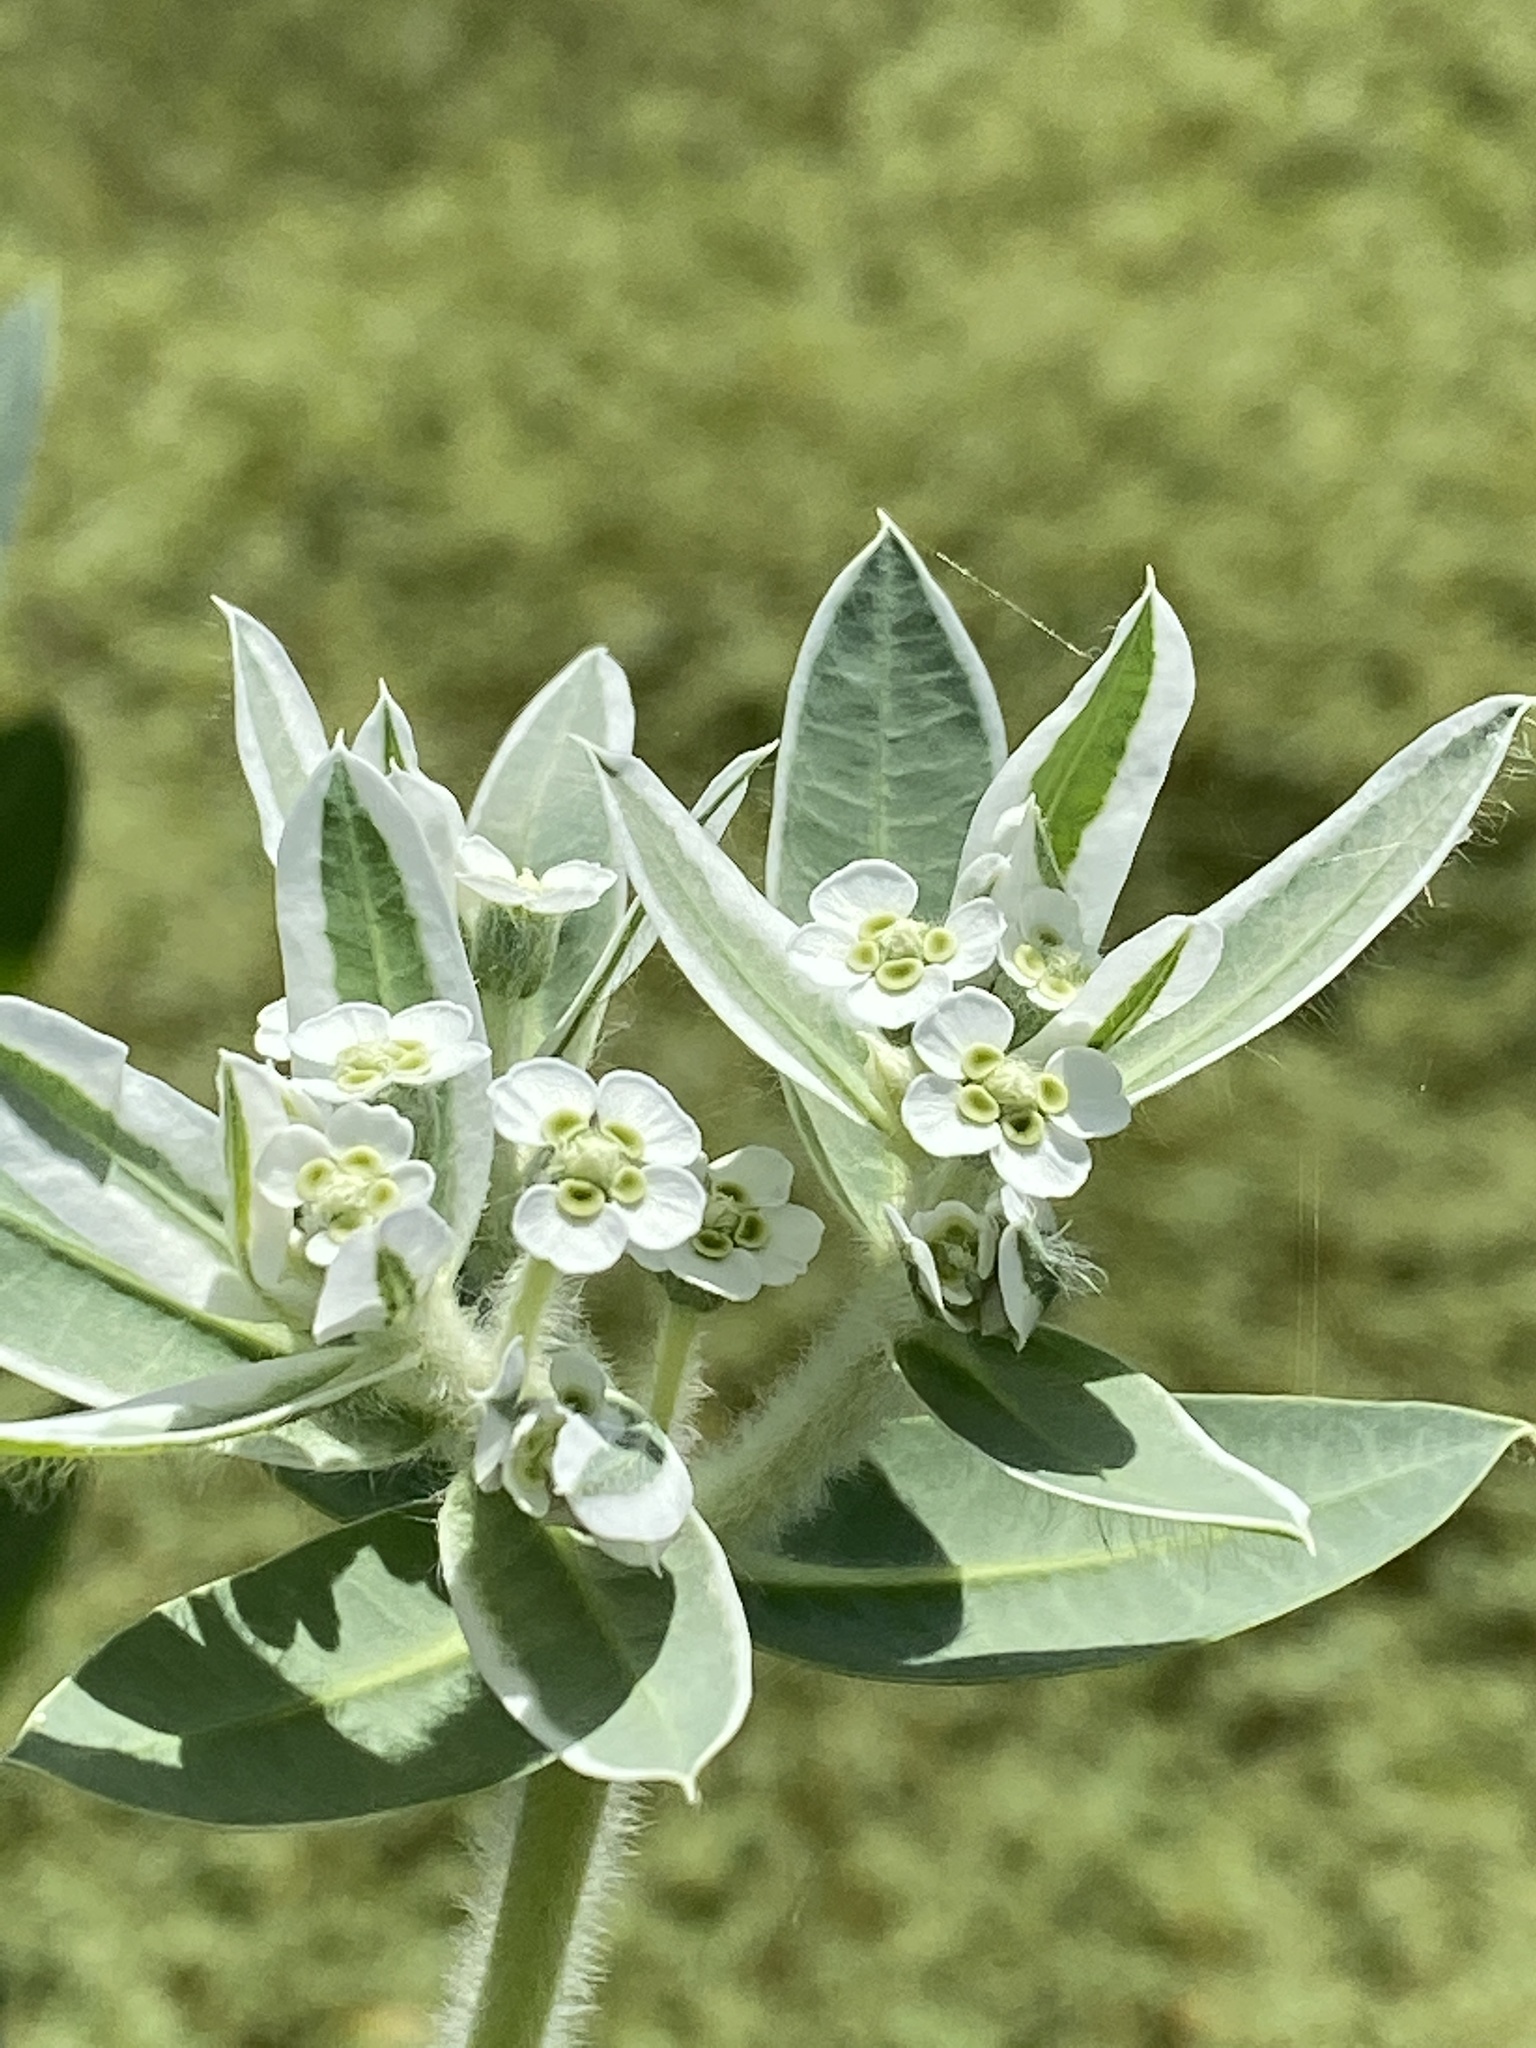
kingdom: Plantae
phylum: Tracheophyta
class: Magnoliopsida
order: Malpighiales
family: Euphorbiaceae
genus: Euphorbia
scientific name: Euphorbia marginata
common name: Ghostweed
